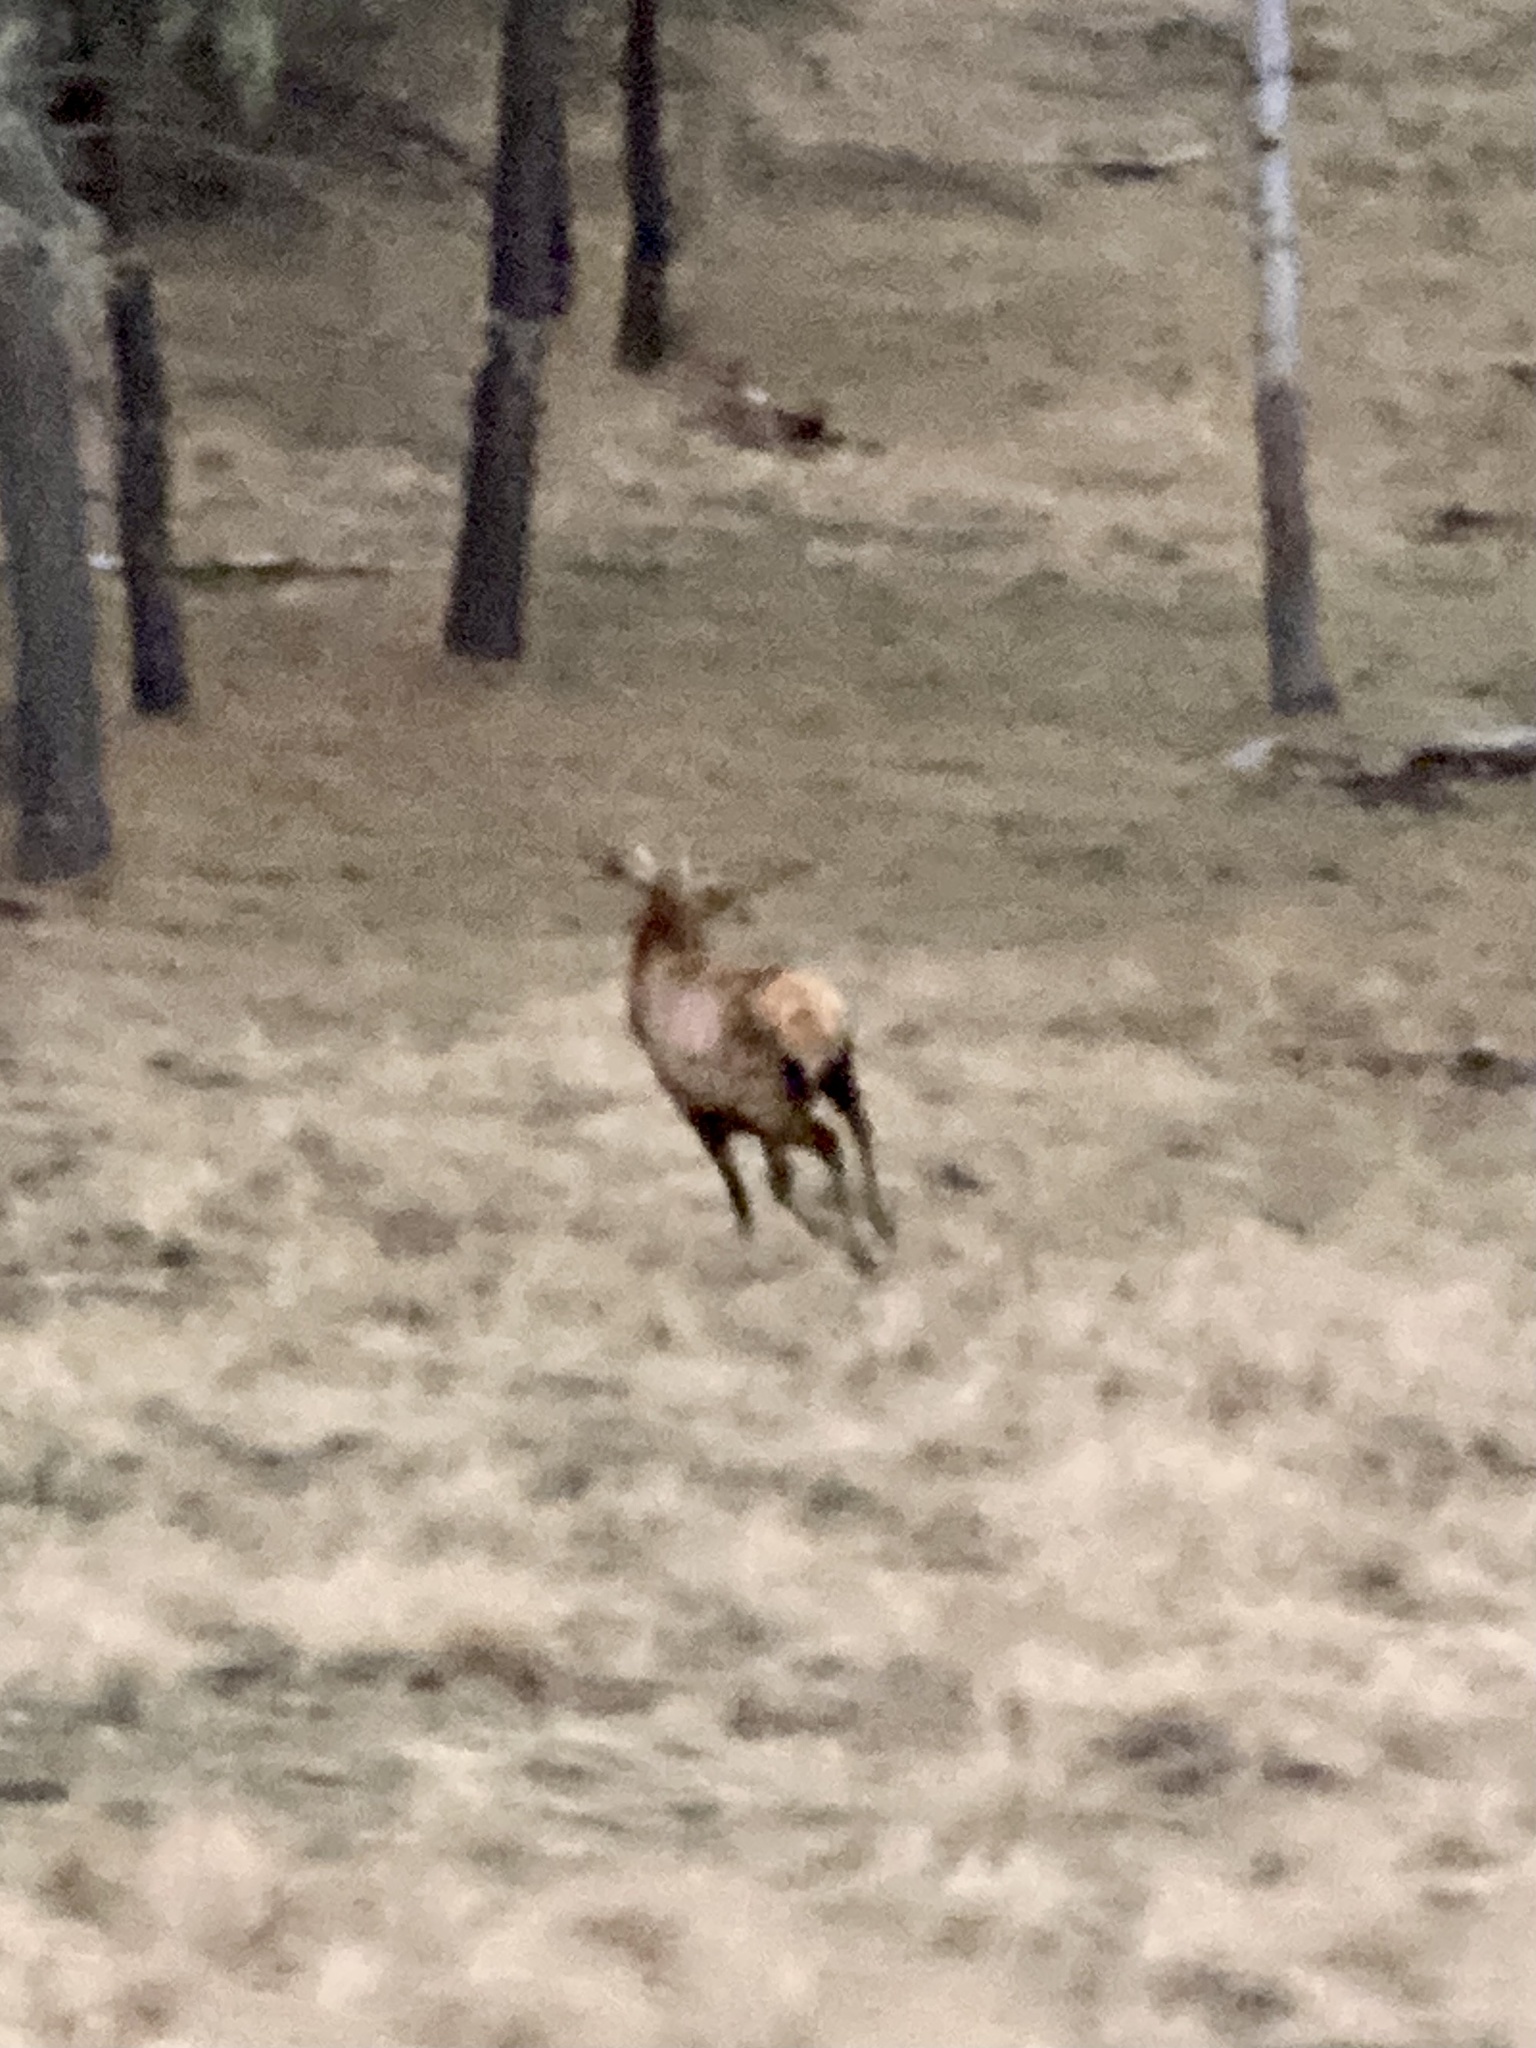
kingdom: Animalia
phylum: Chordata
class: Mammalia
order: Artiodactyla
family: Cervidae
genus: Cervus
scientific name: Cervus elaphus
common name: Red deer
